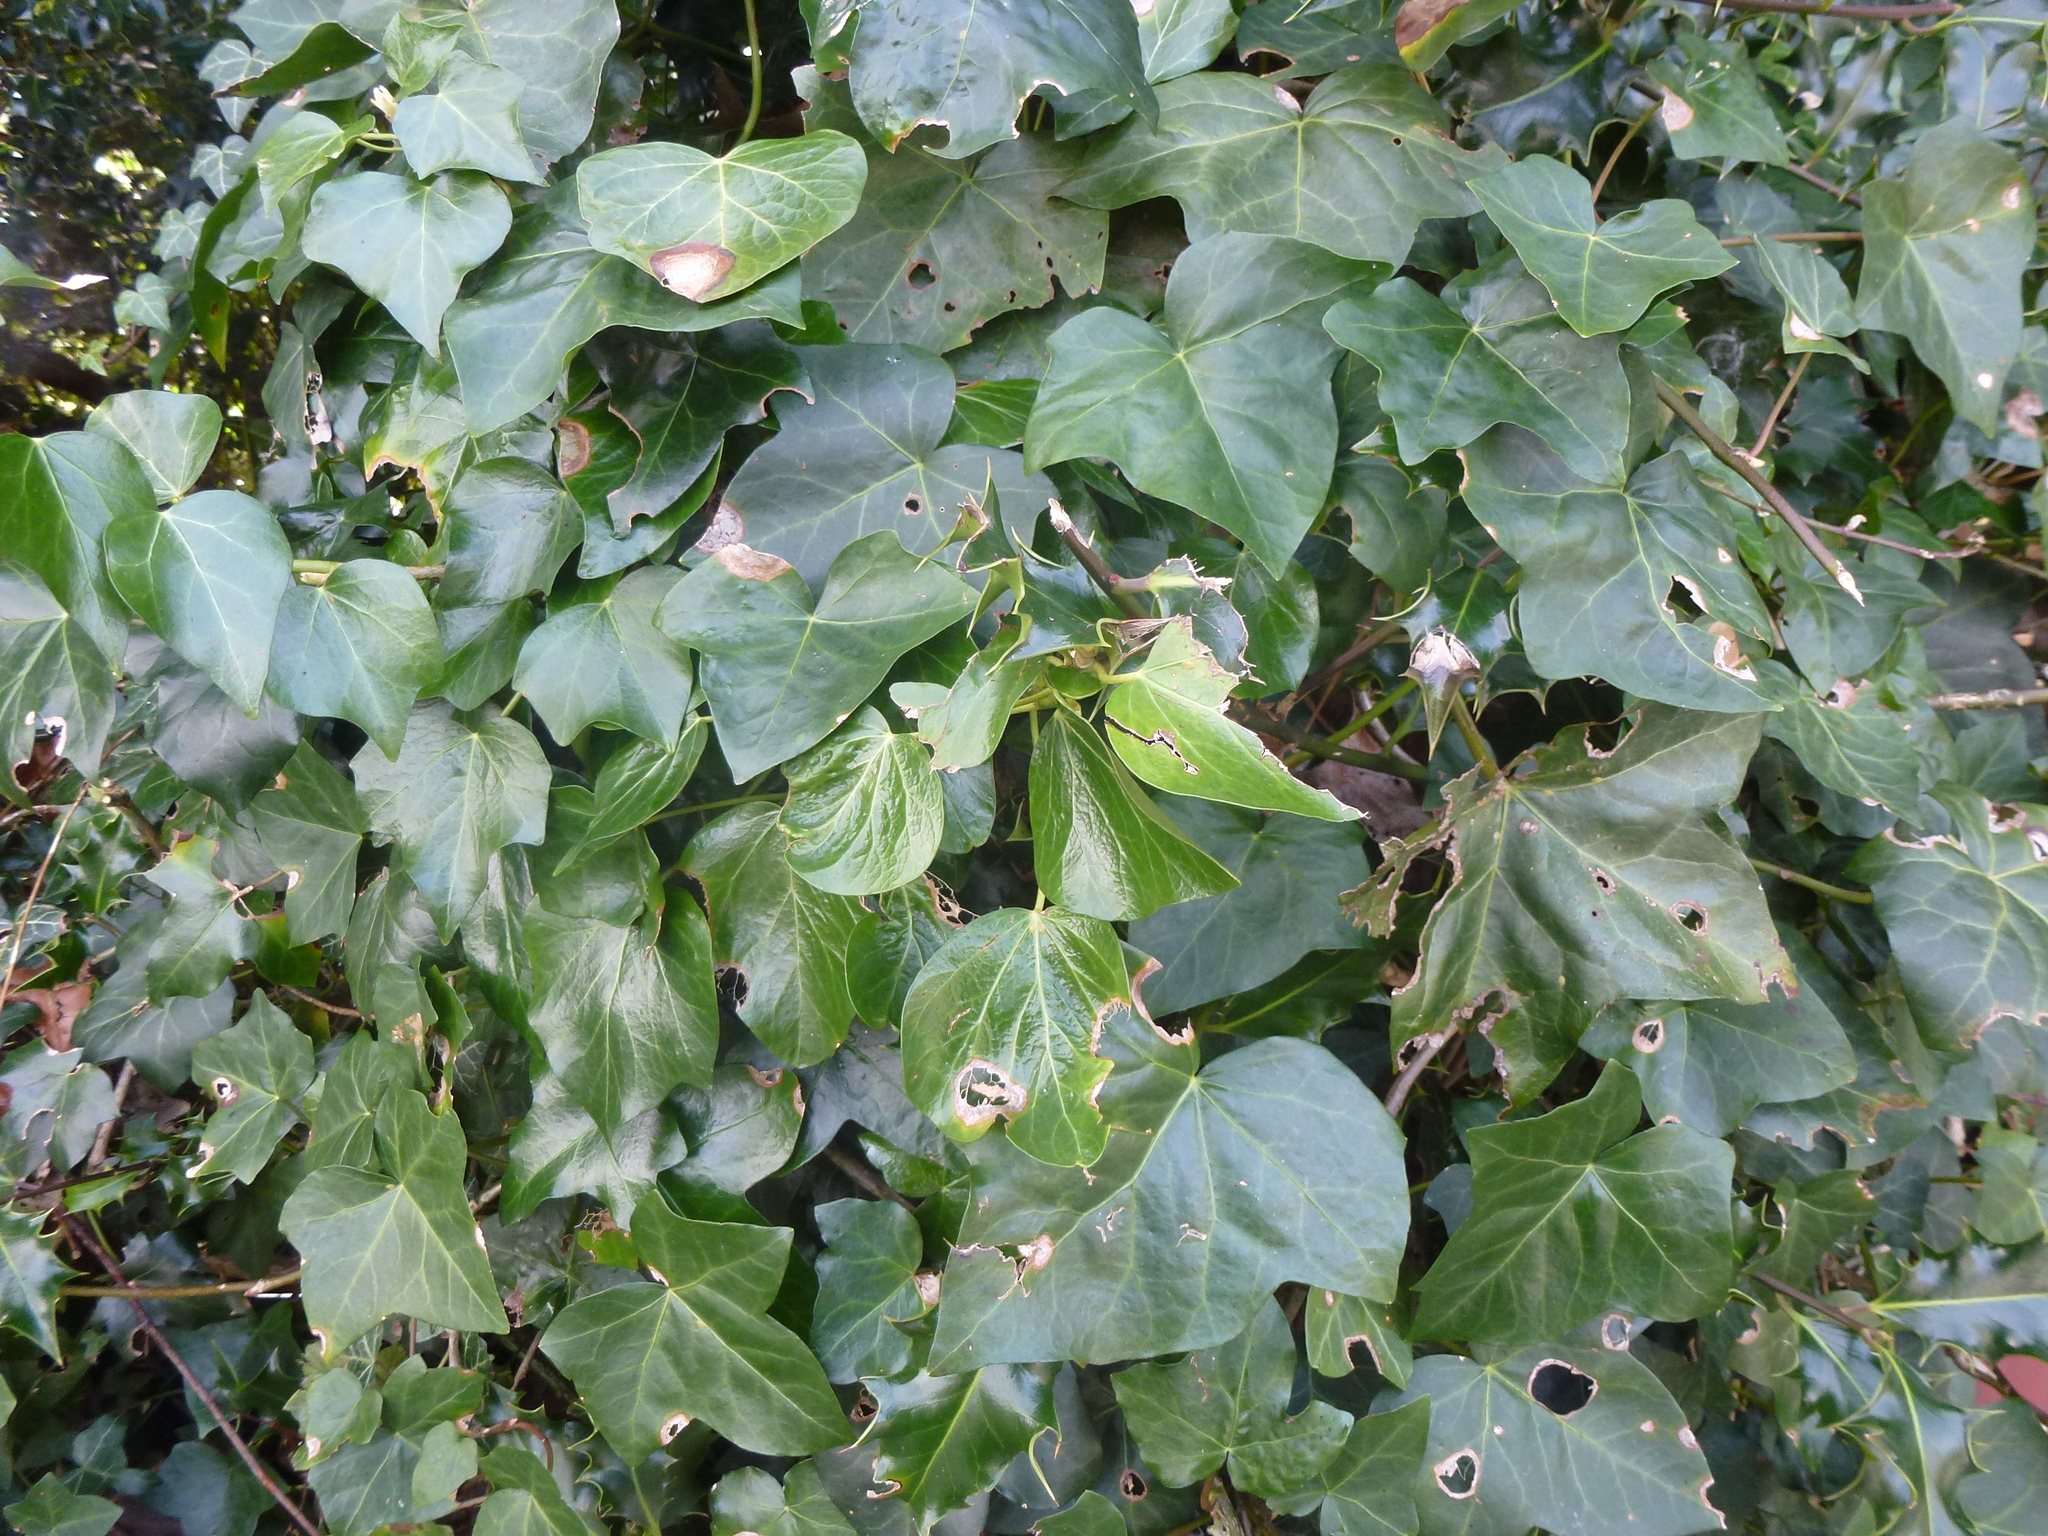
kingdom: Plantae
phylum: Tracheophyta
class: Magnoliopsida
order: Apiales
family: Araliaceae
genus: Hedera
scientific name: Hedera helix
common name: Ivy
